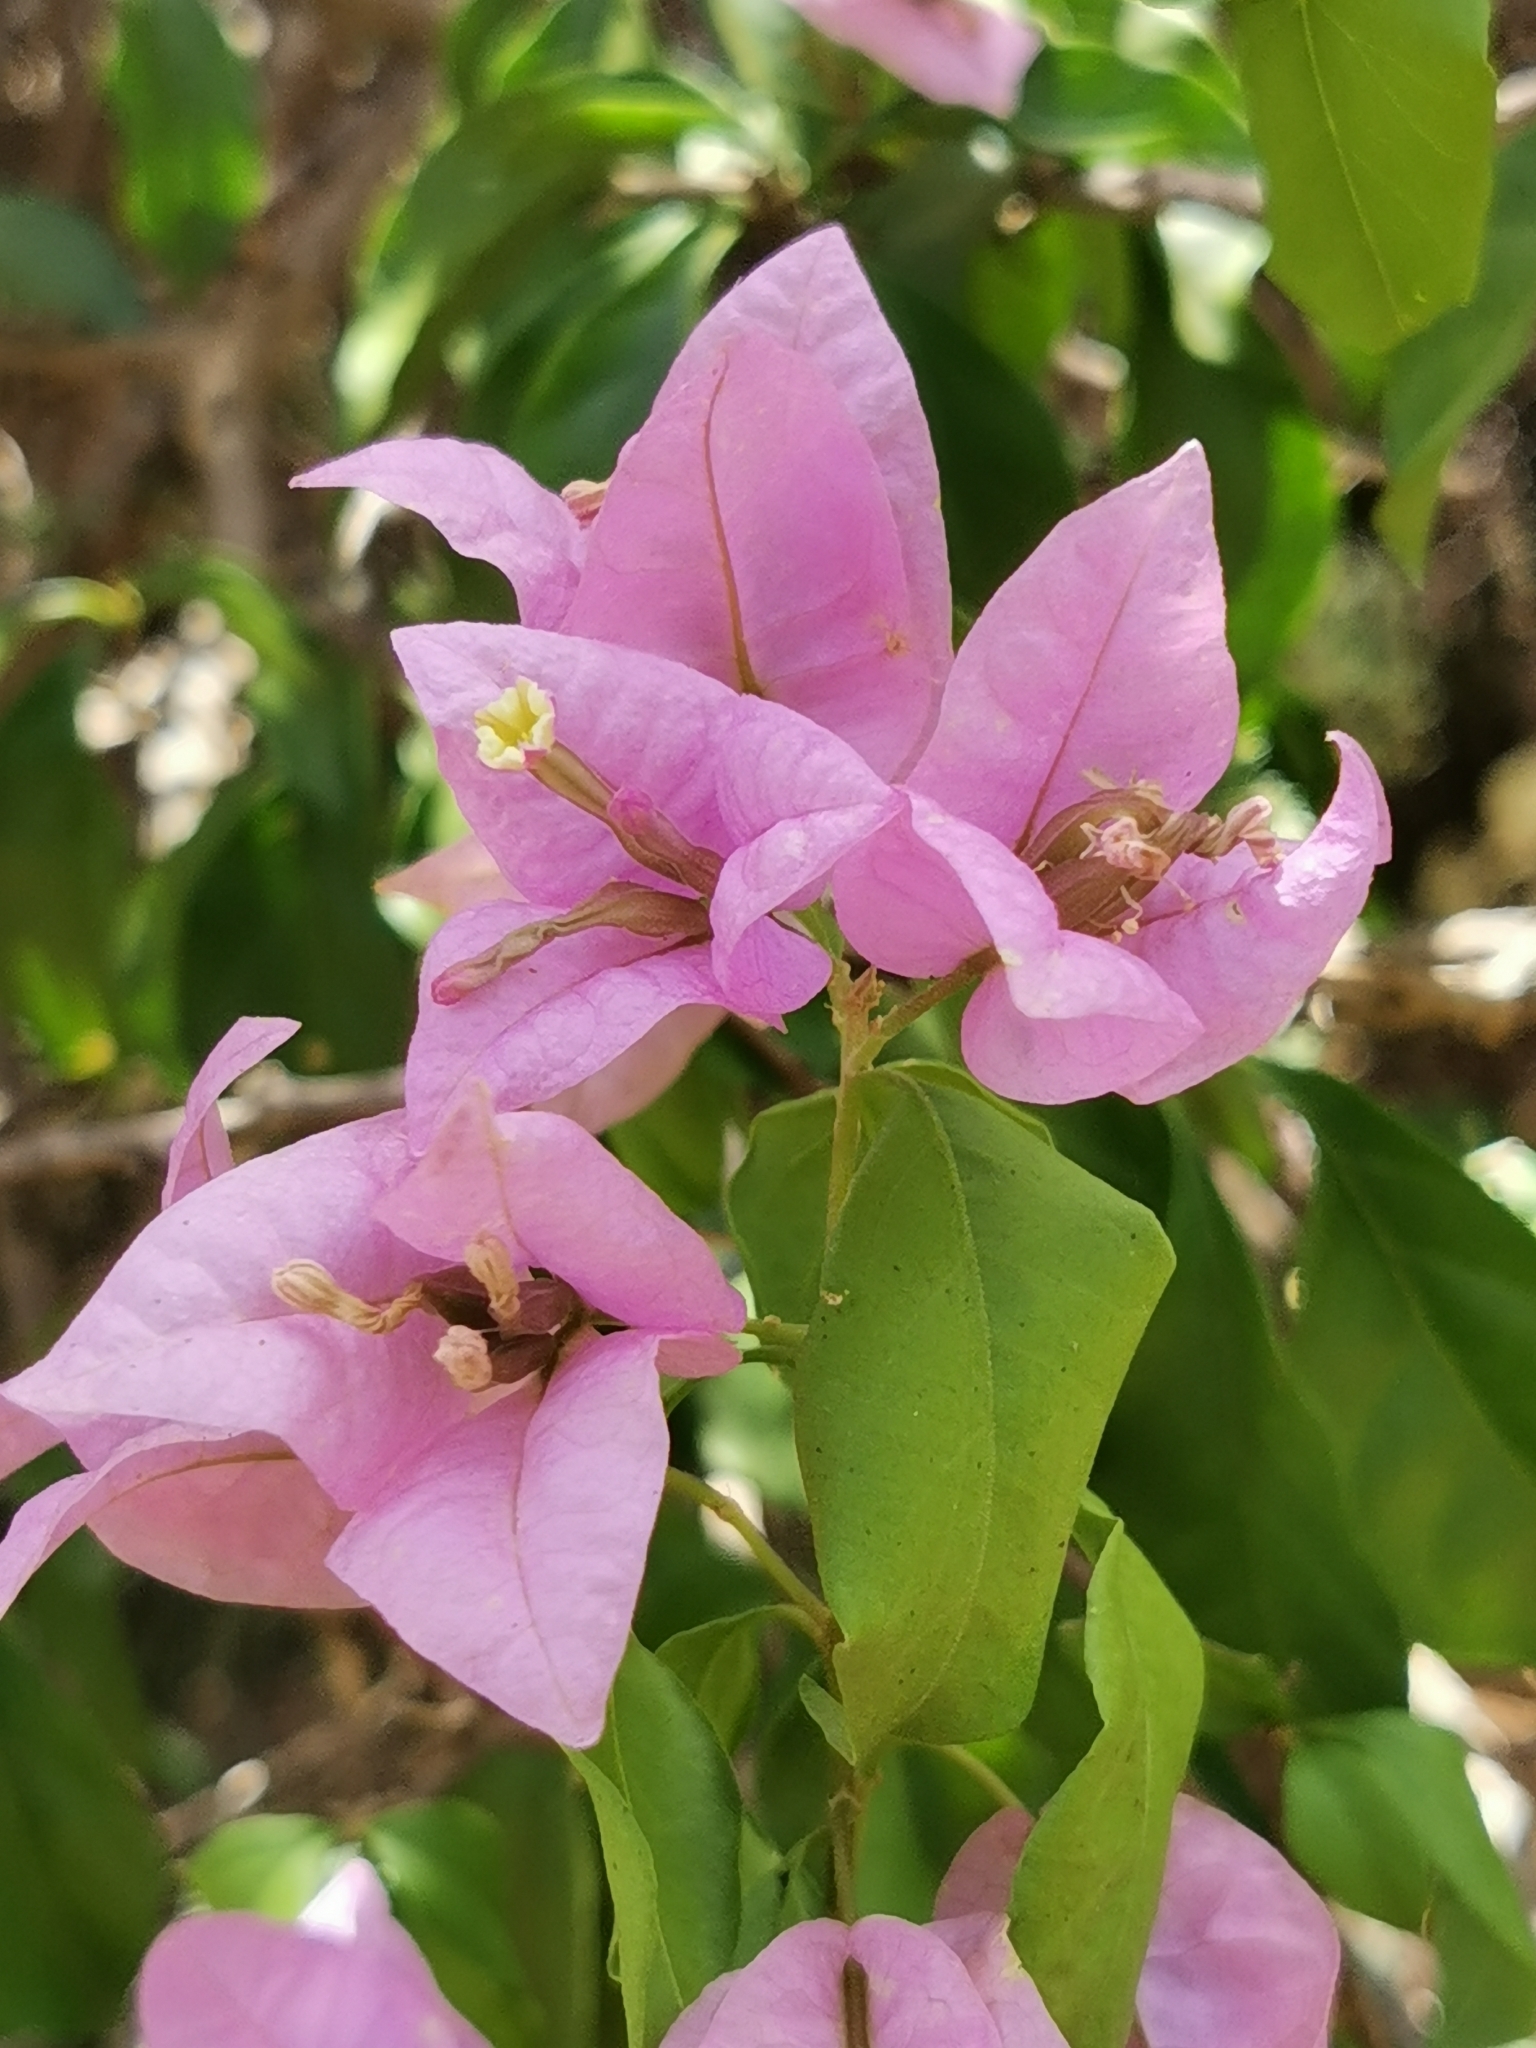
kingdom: Plantae
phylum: Tracheophyta
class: Magnoliopsida
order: Caryophyllales
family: Nyctaginaceae
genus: Bougainvillea
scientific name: Bougainvillea glabra
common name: Paperflower
